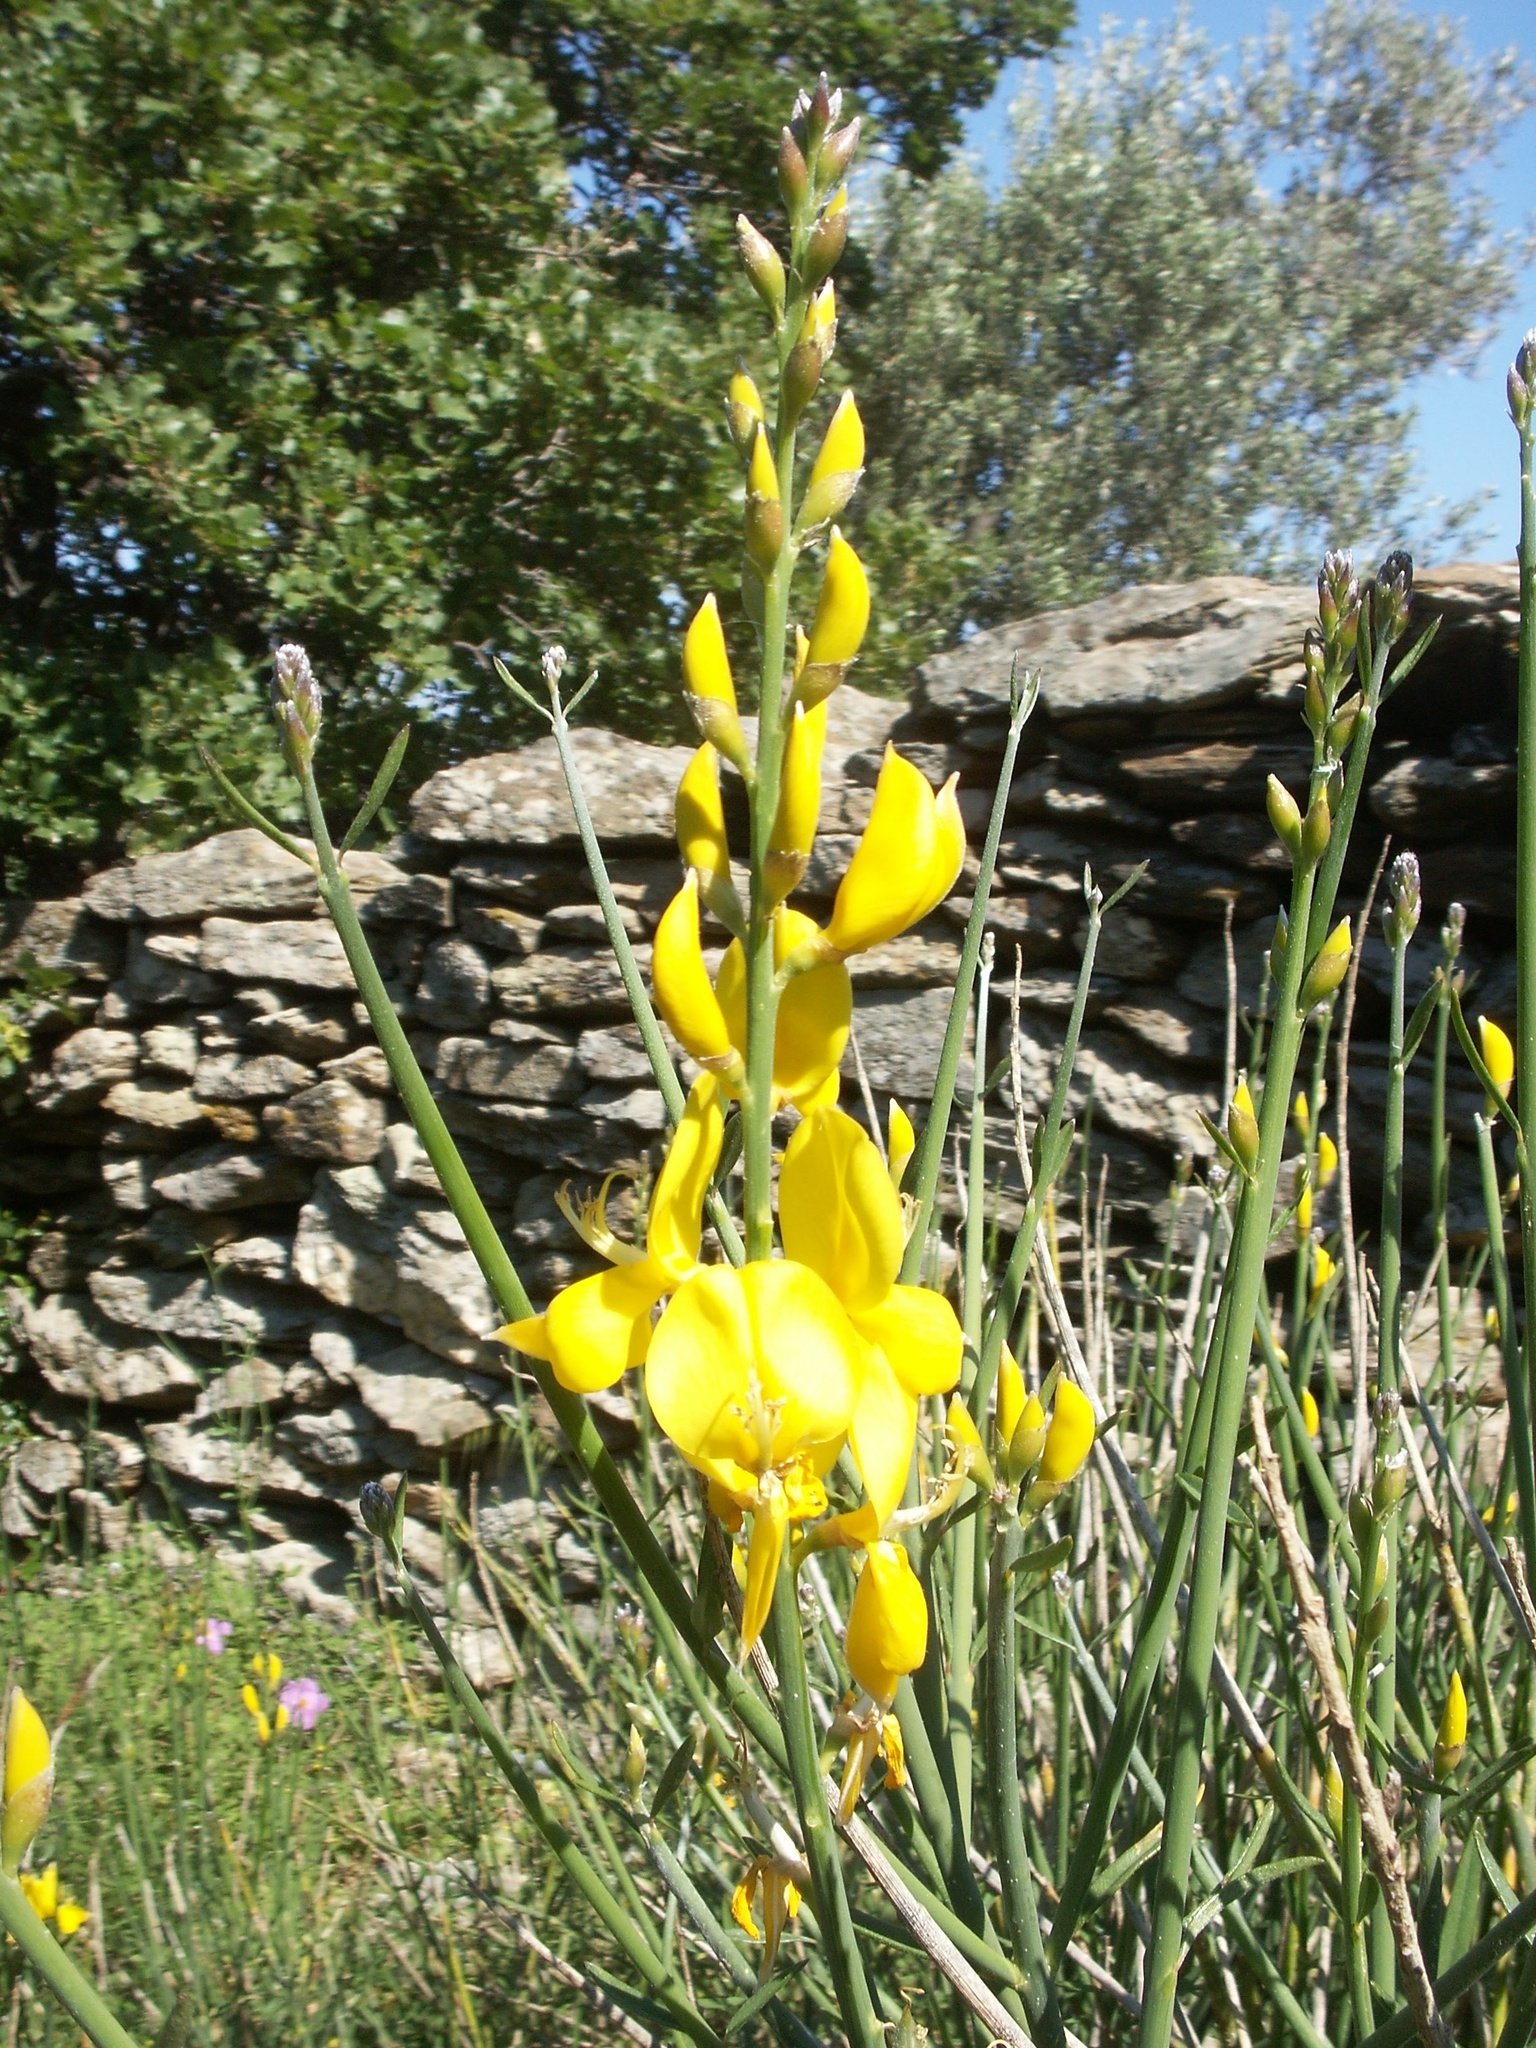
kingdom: Plantae
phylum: Tracheophyta
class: Magnoliopsida
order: Fabales
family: Fabaceae
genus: Spartium
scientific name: Spartium junceum
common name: Spanish broom
